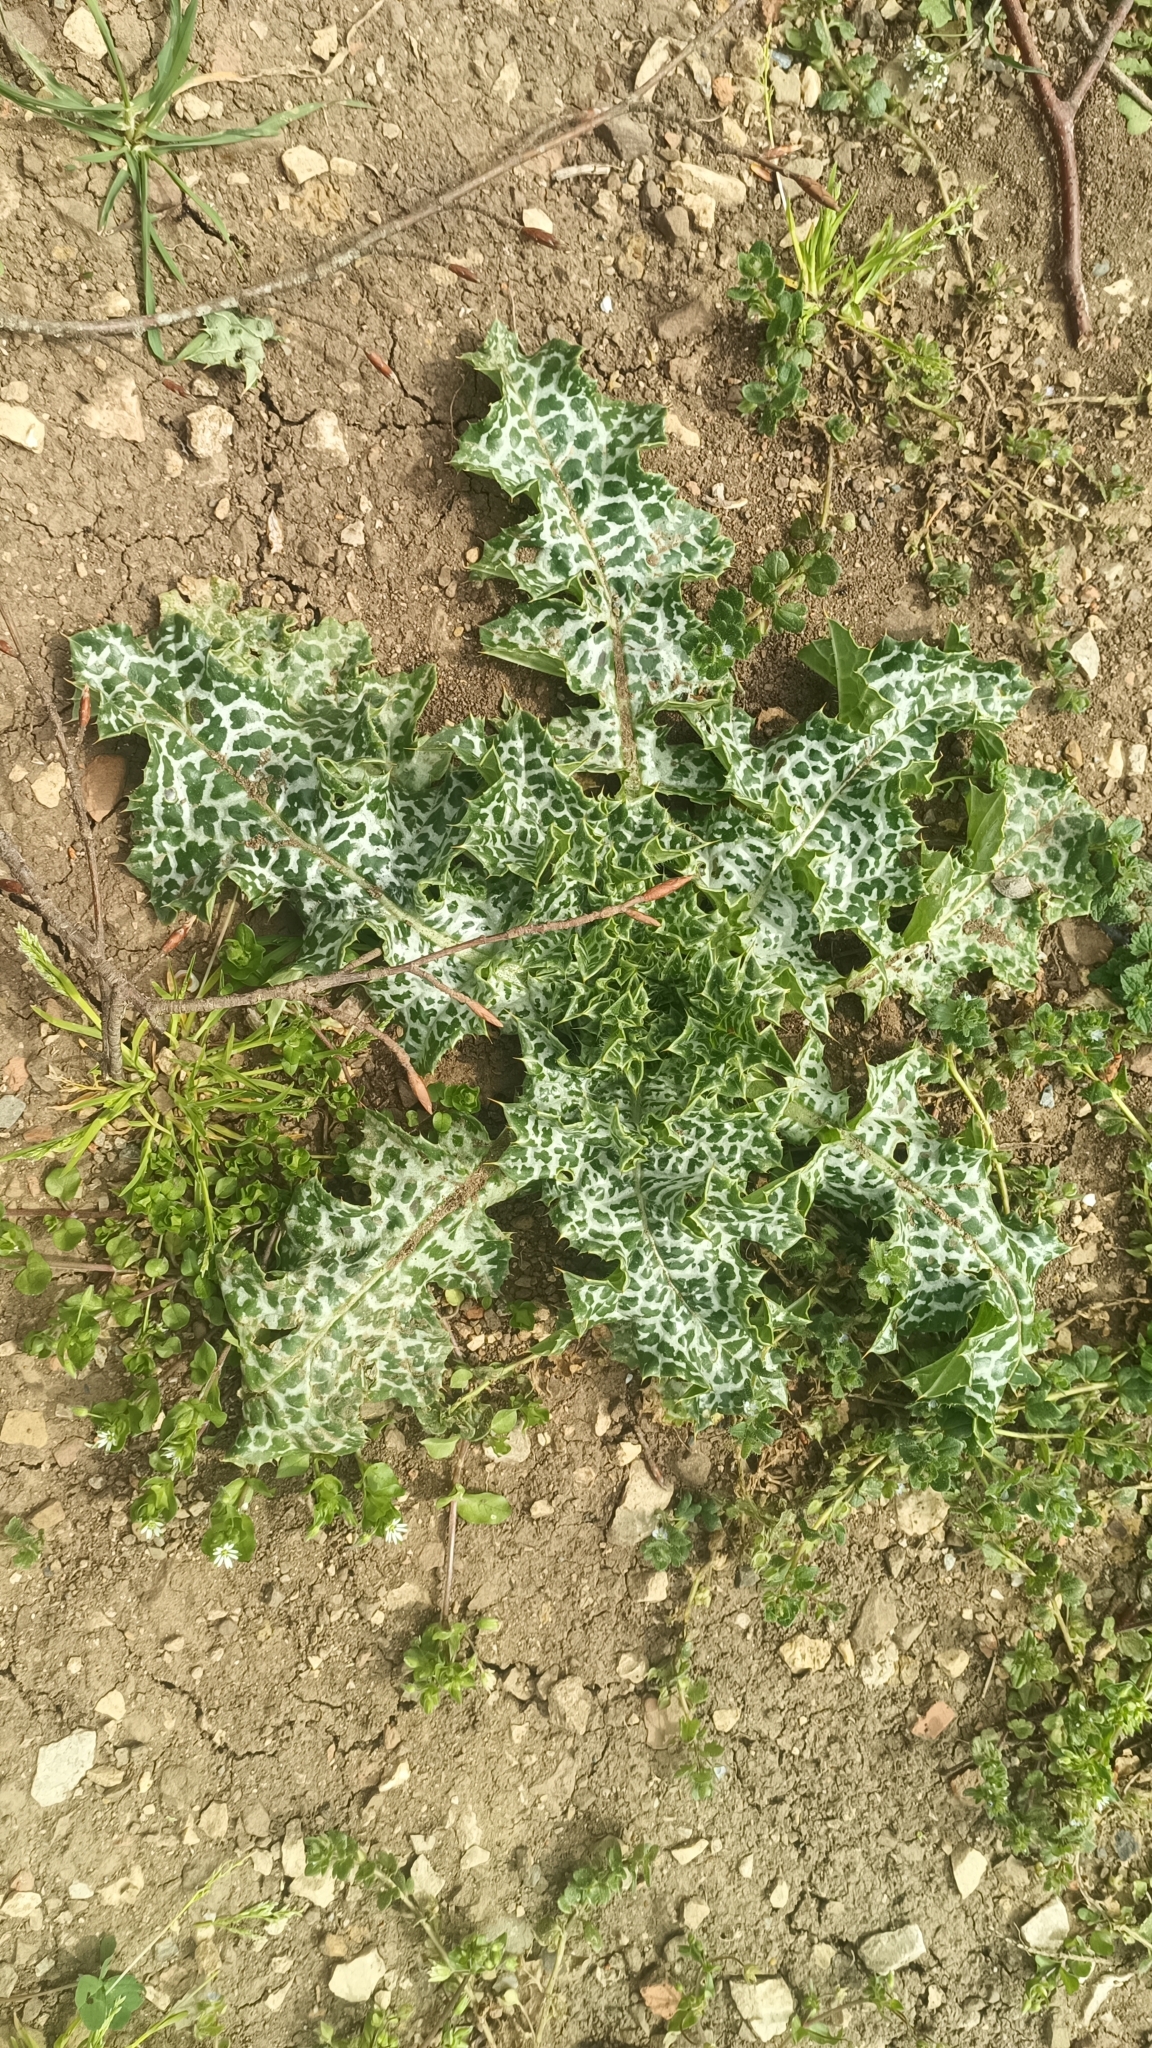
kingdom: Plantae
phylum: Tracheophyta
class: Magnoliopsida
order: Asterales
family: Asteraceae
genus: Silybum
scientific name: Silybum marianum
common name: Milk thistle
